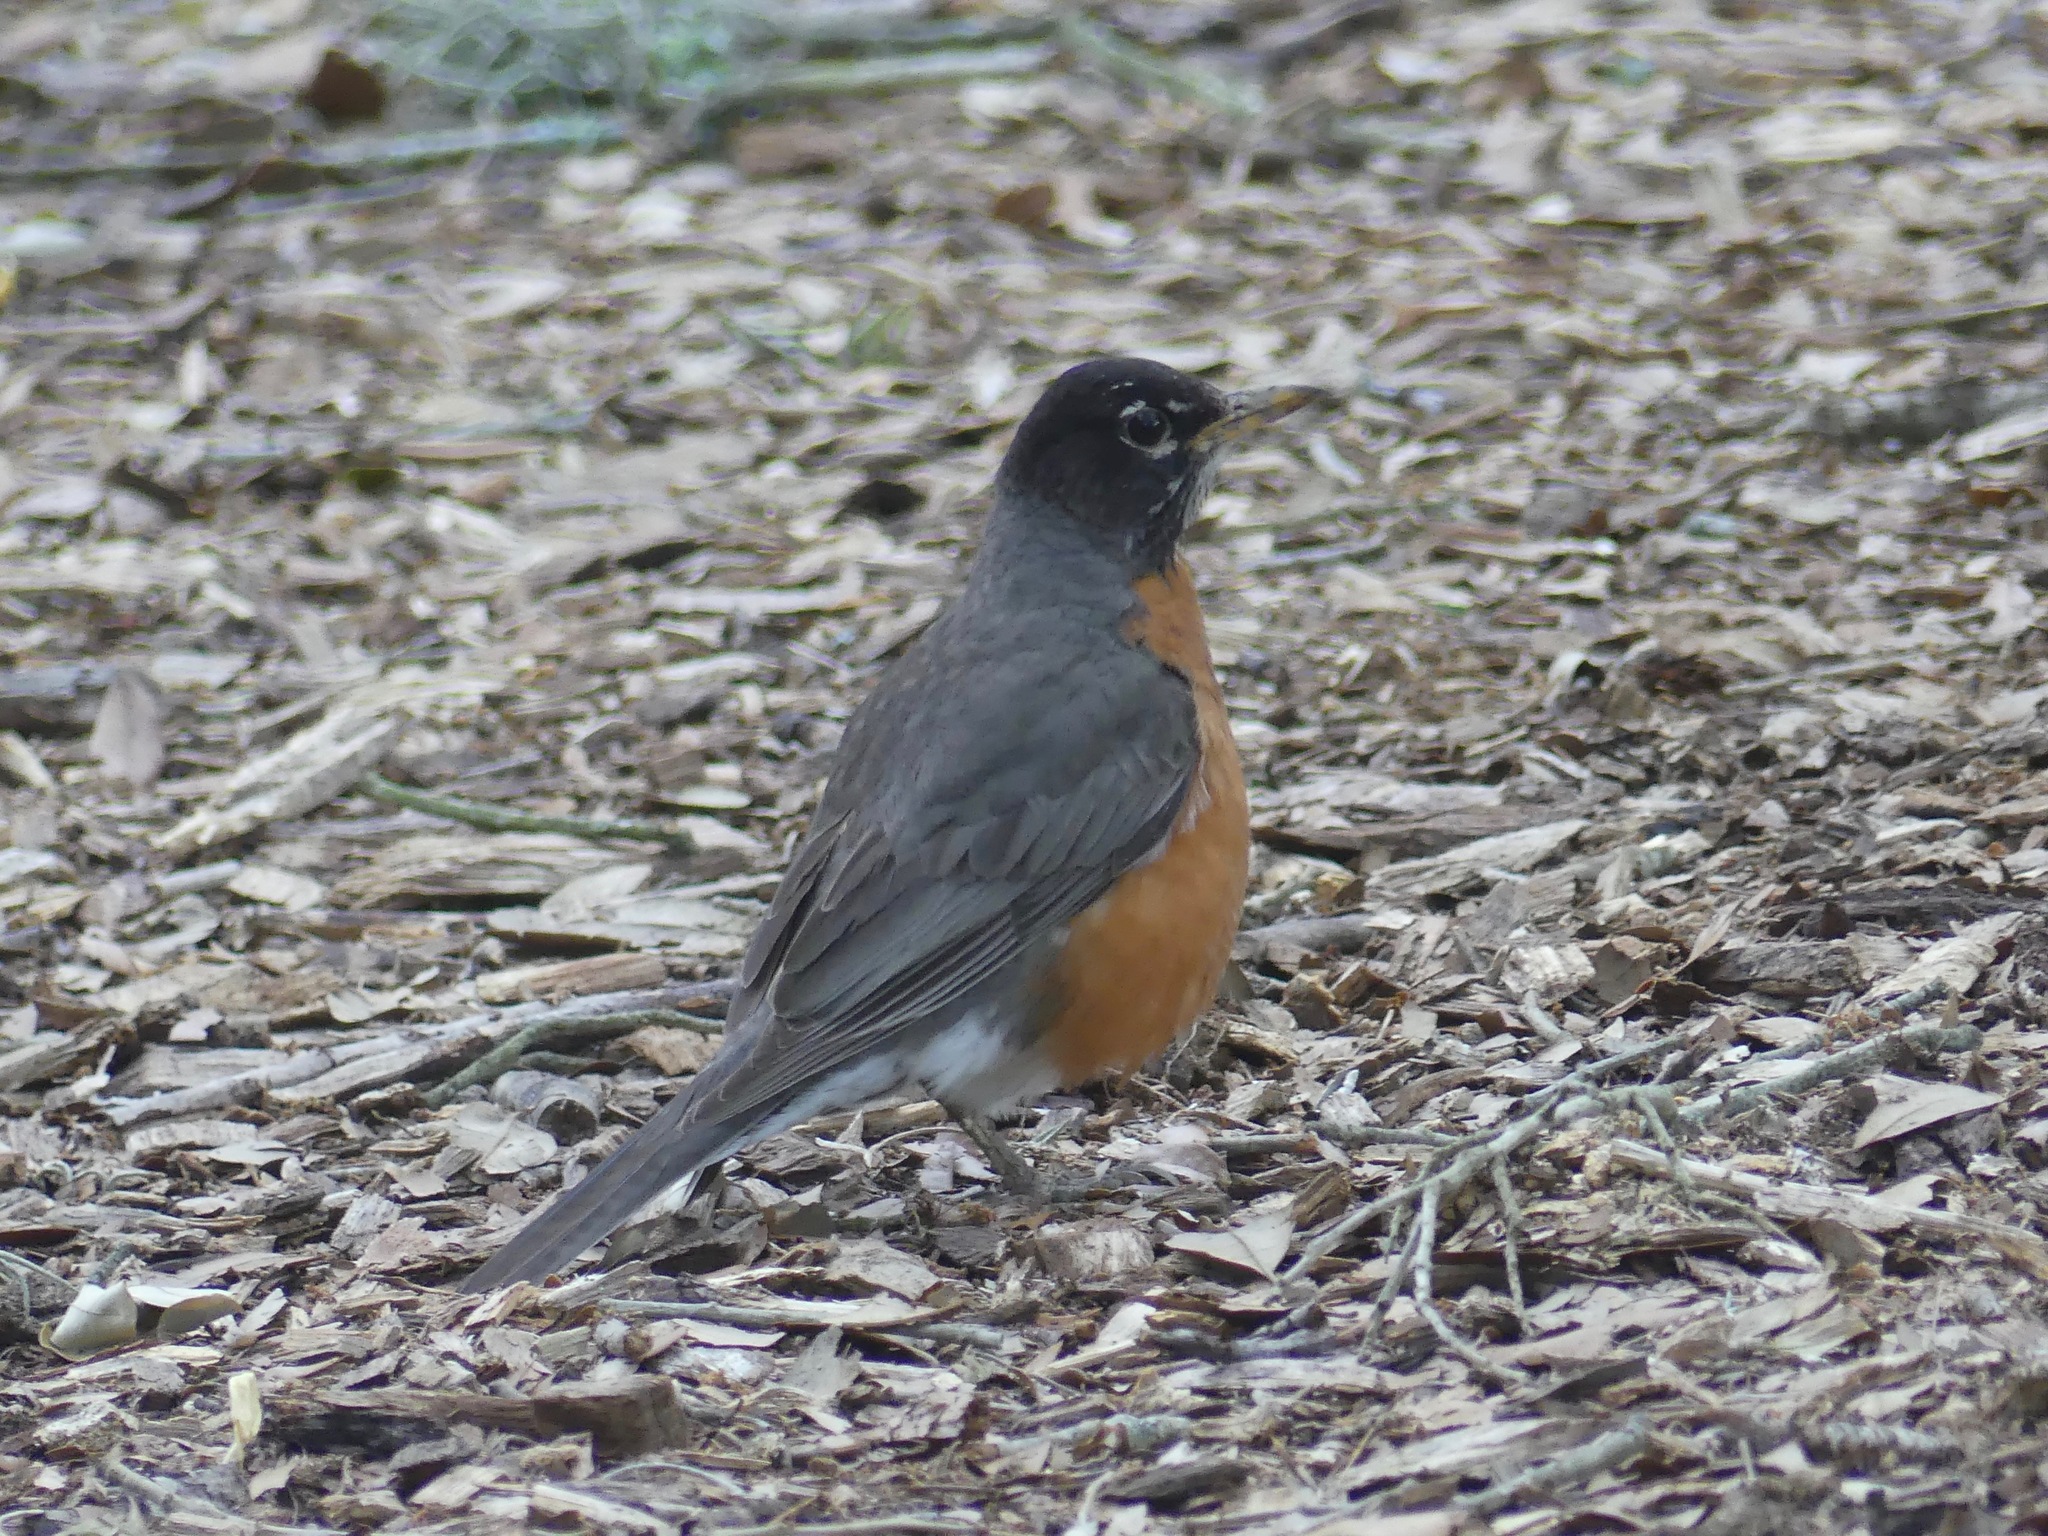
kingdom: Animalia
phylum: Chordata
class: Aves
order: Passeriformes
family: Turdidae
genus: Turdus
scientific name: Turdus migratorius
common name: American robin
